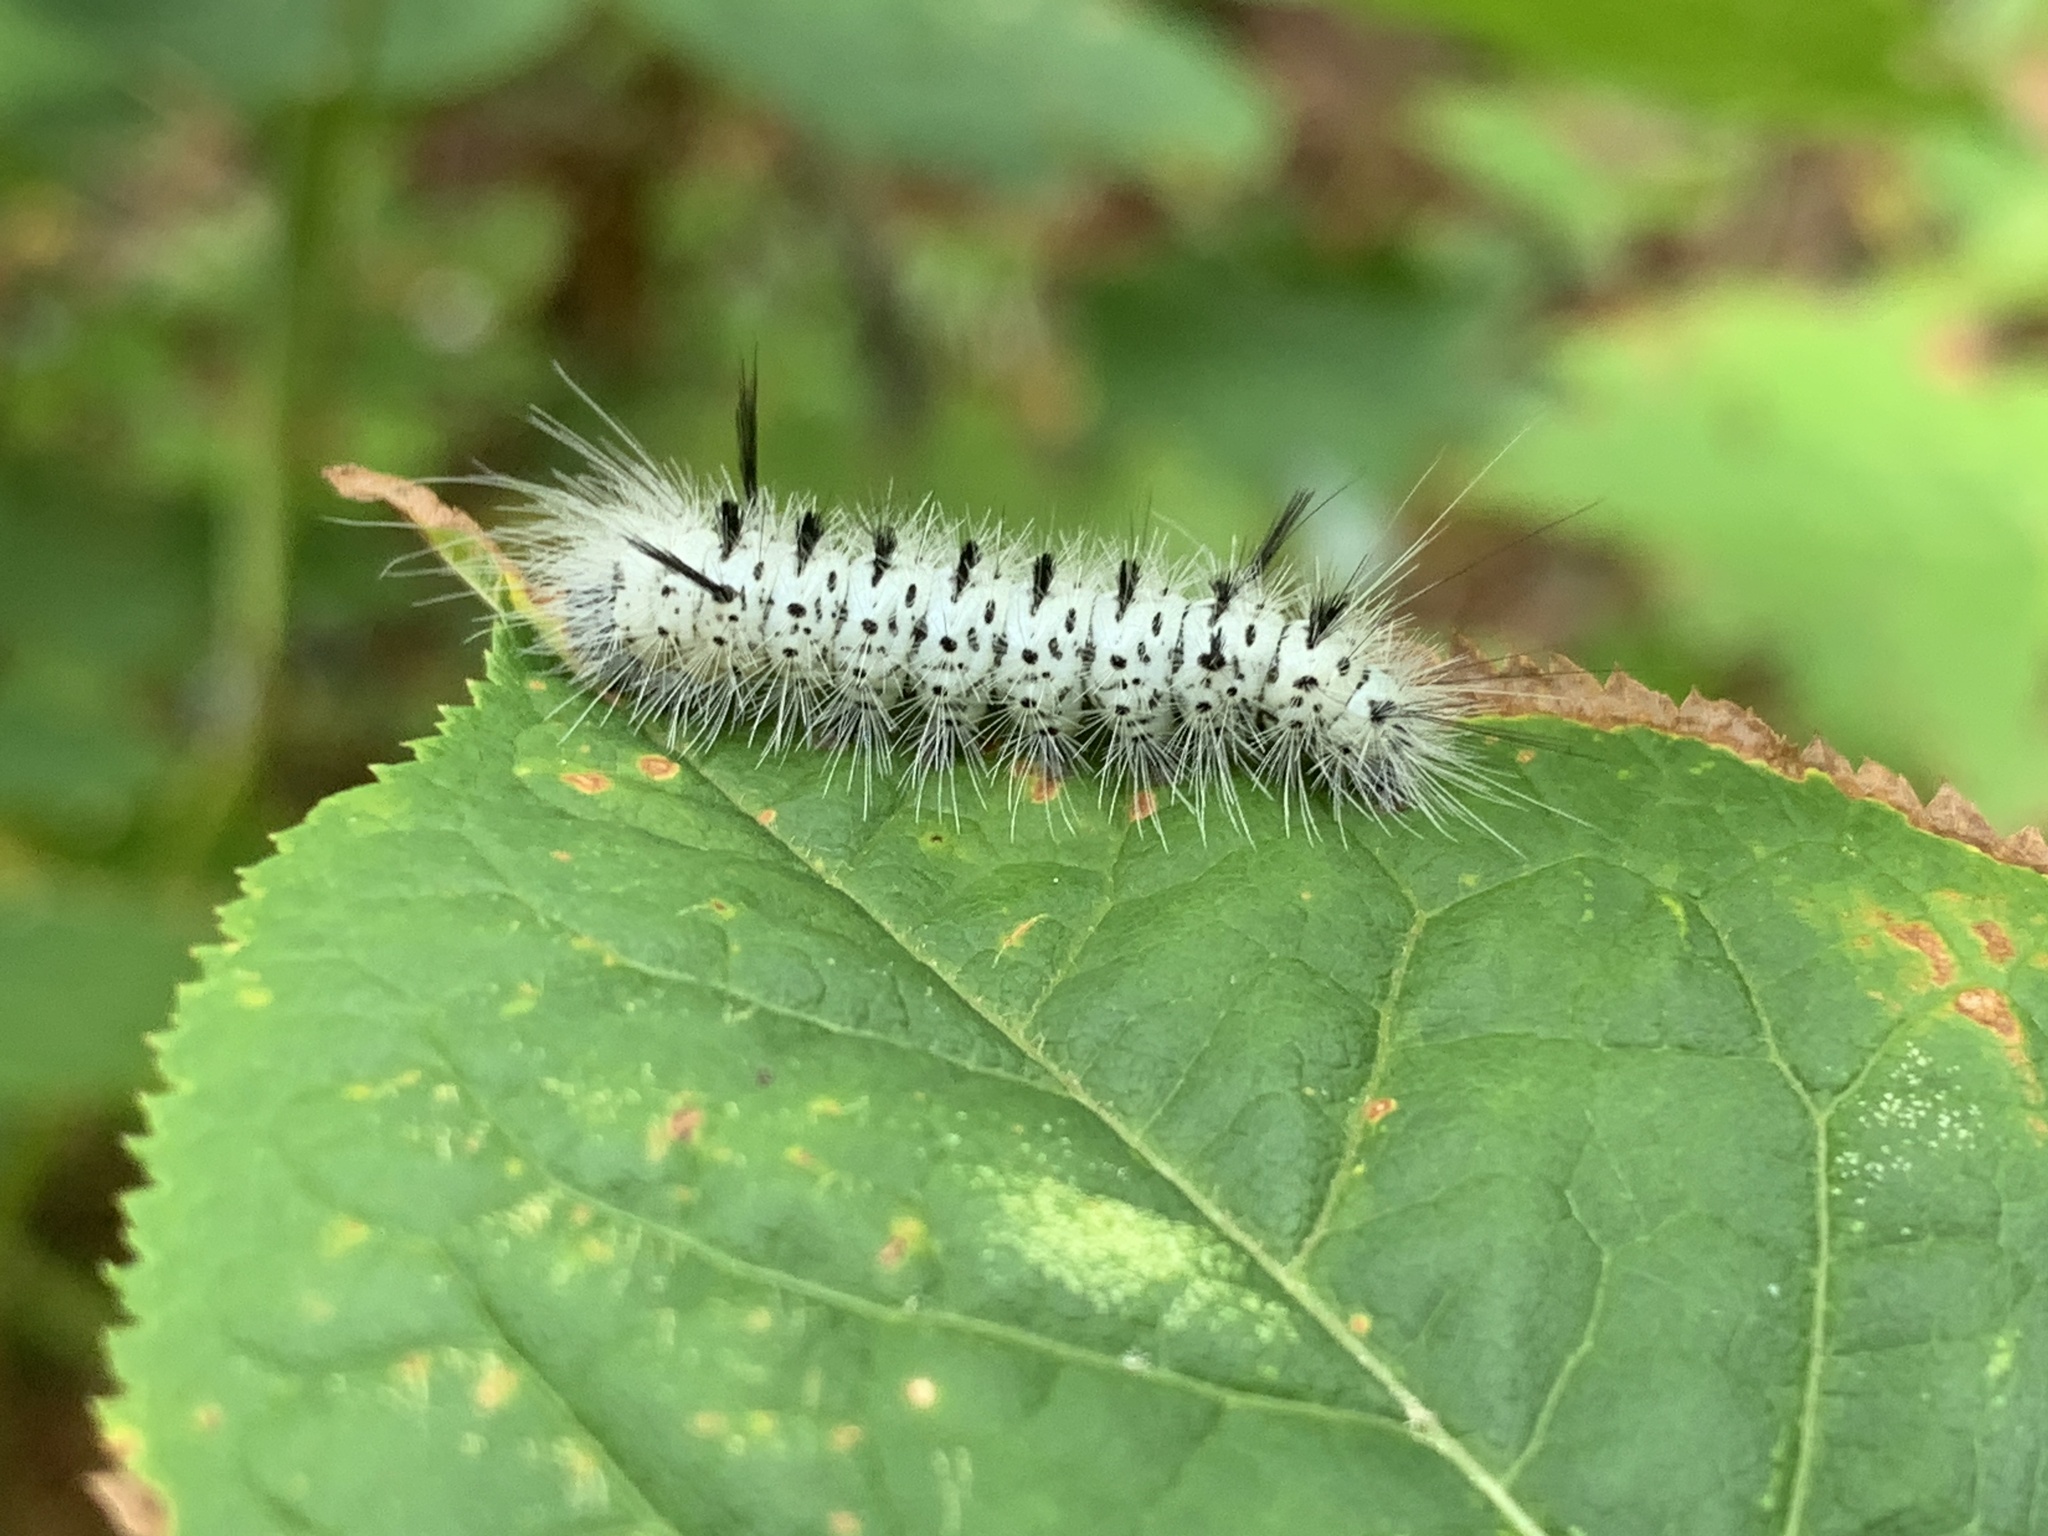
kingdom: Animalia
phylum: Arthropoda
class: Insecta
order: Lepidoptera
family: Erebidae
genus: Lophocampa
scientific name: Lophocampa caryae
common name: Hickory tussock moth
